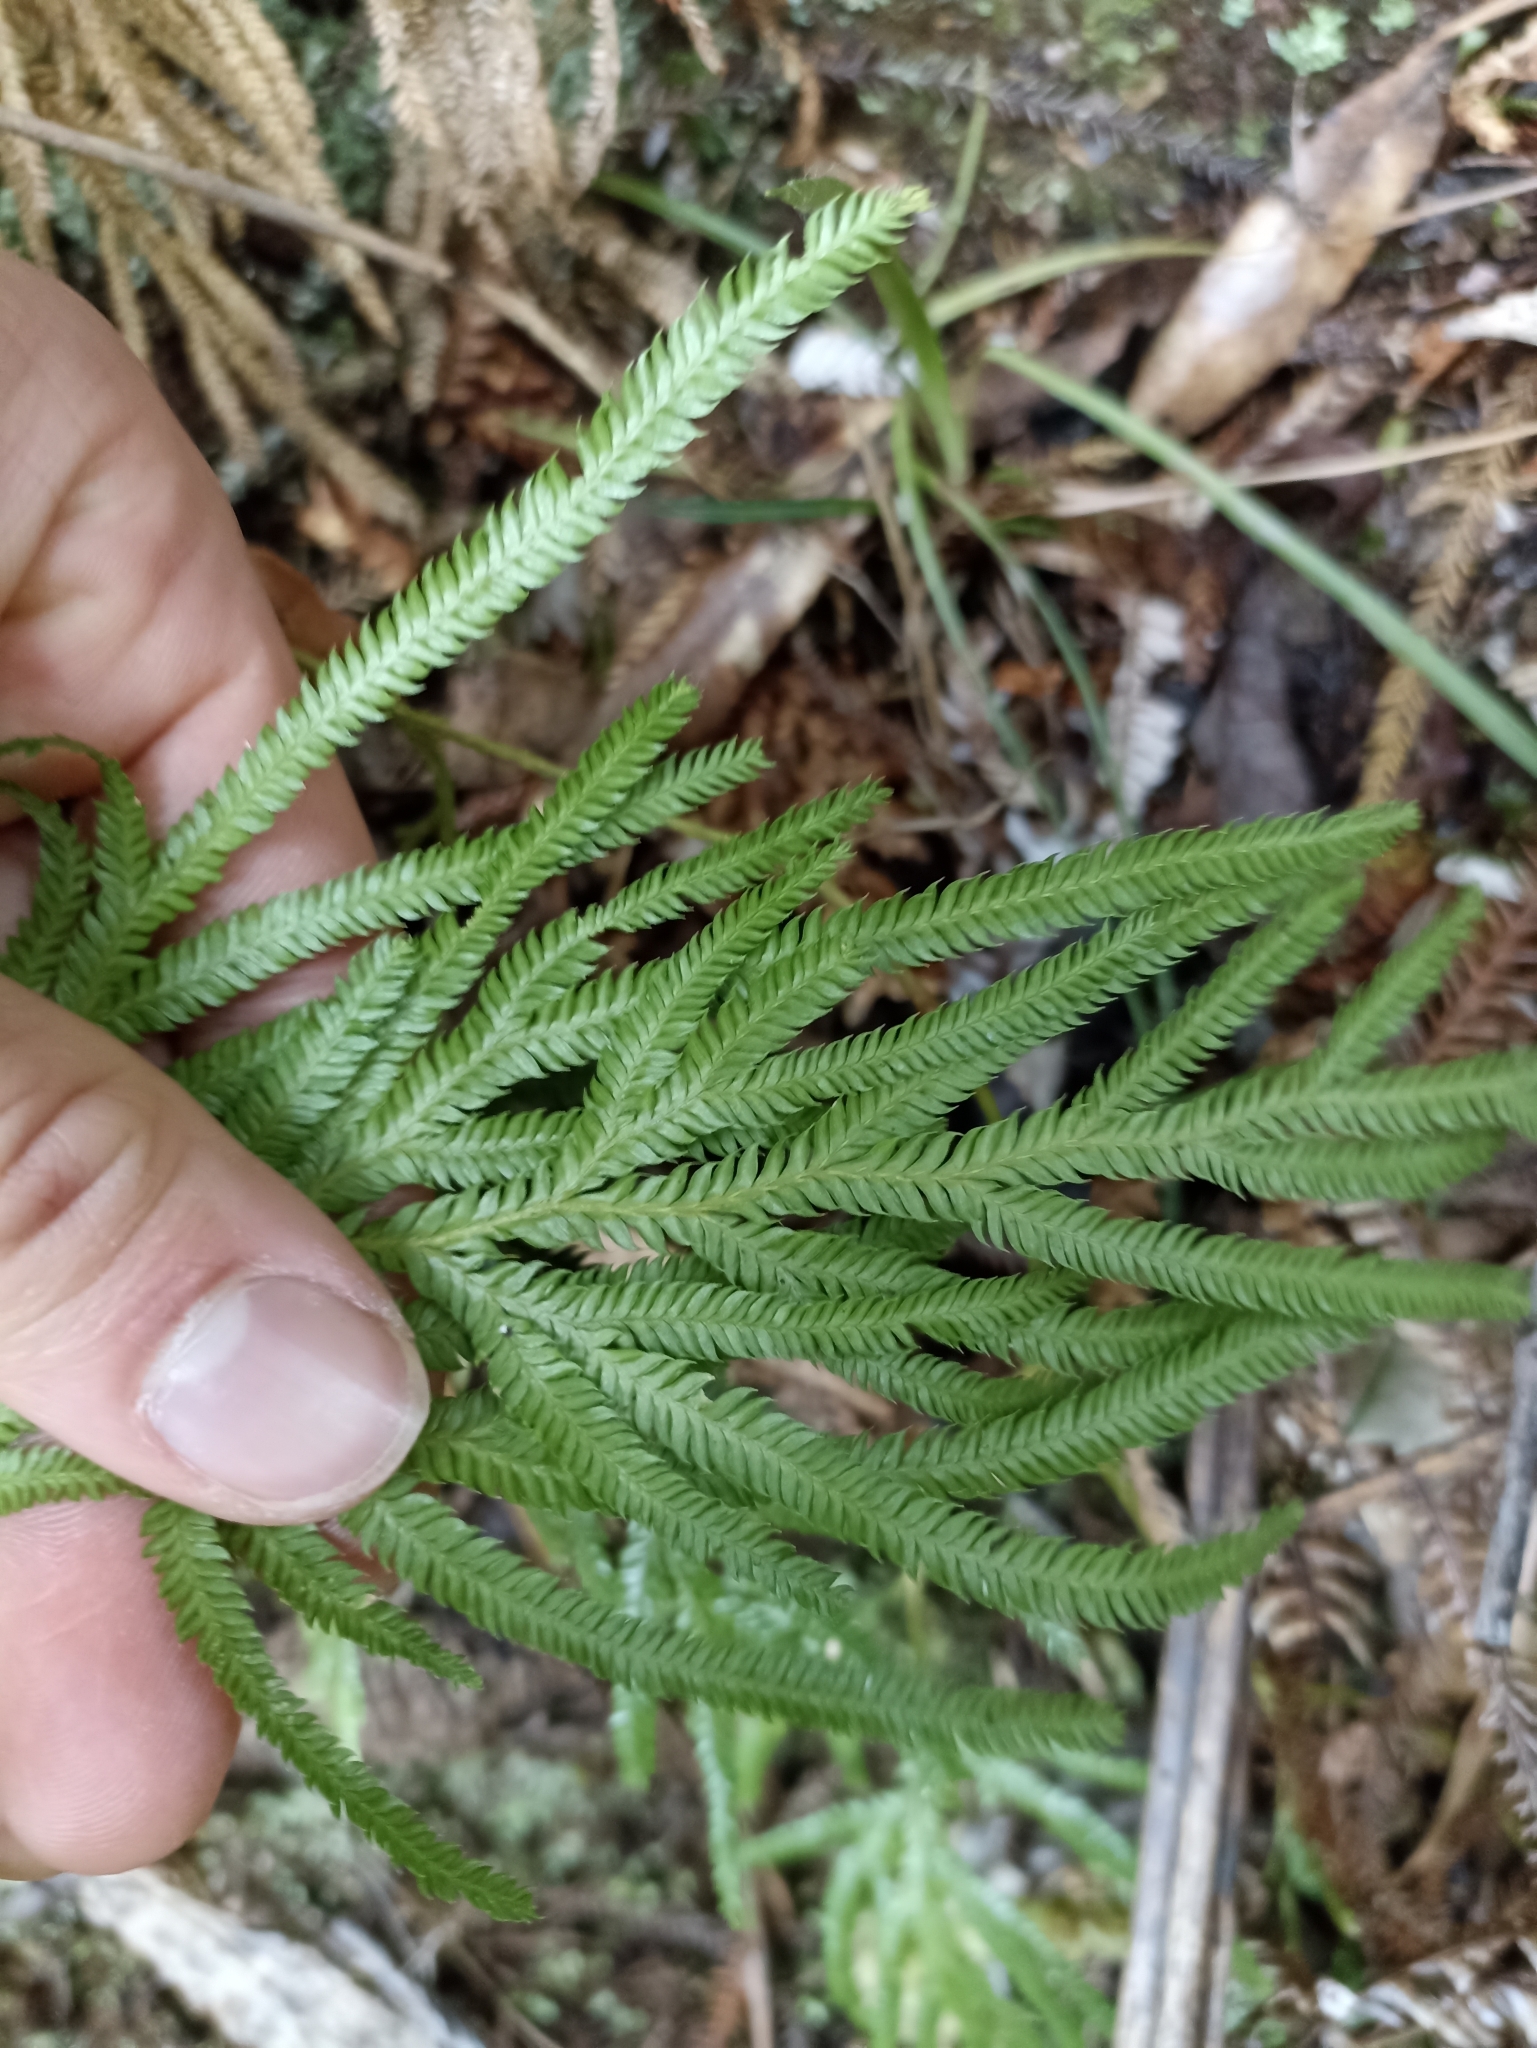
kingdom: Plantae
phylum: Tracheophyta
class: Lycopodiopsida
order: Lycopodiales
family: Lycopodiaceae
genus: Lycopodium
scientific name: Lycopodium volubile
